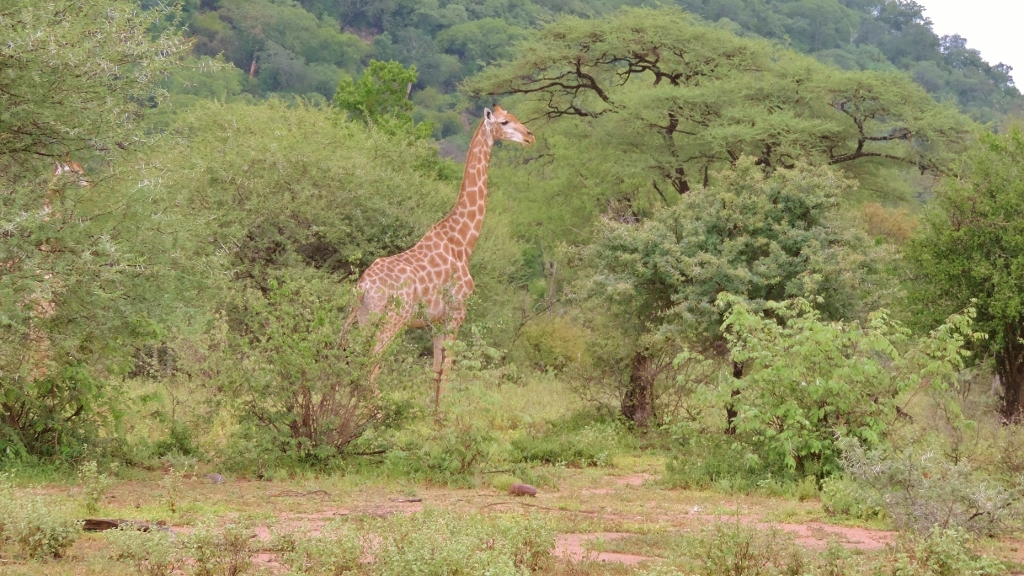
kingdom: Animalia
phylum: Chordata
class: Mammalia
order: Artiodactyla
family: Giraffidae
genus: Giraffa
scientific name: Giraffa giraffa
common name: Southern giraffe
